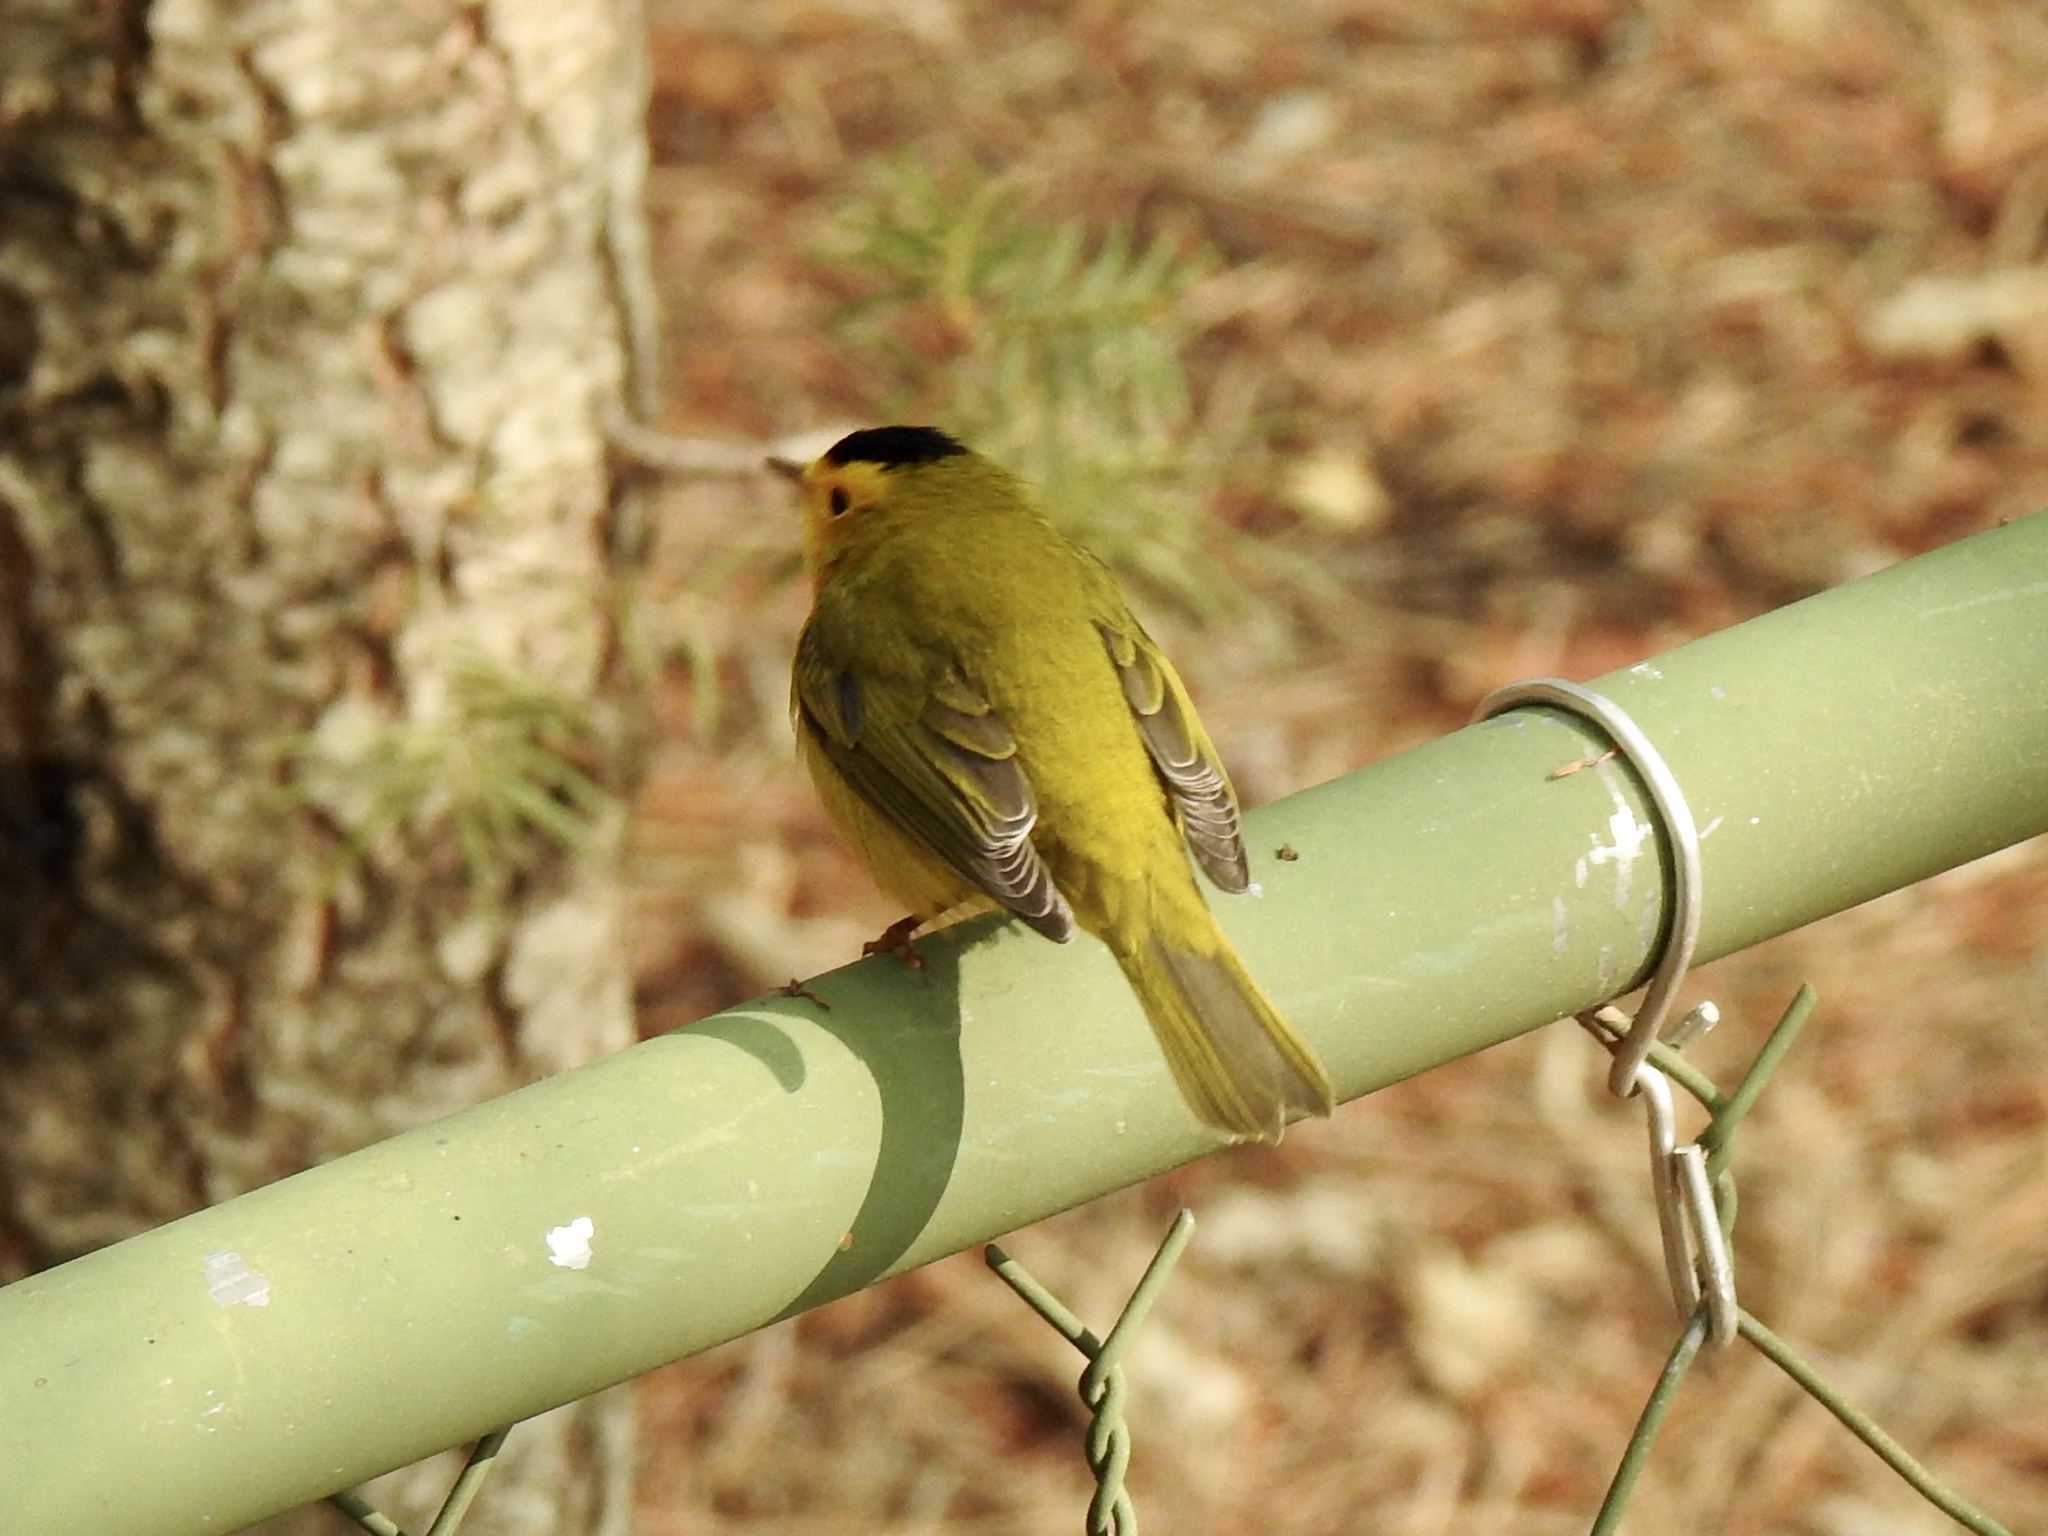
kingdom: Animalia
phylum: Chordata
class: Aves
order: Passeriformes
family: Parulidae
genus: Cardellina
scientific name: Cardellina pusilla
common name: Wilson's warbler
